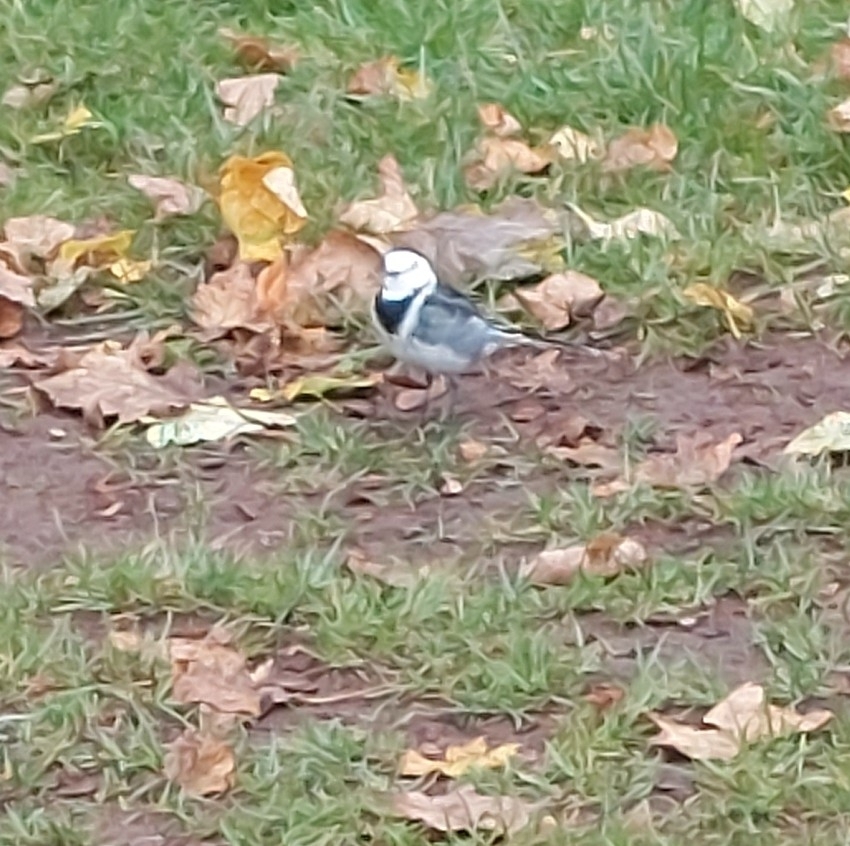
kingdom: Animalia
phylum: Chordata
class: Aves
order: Passeriformes
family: Motacillidae
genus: Motacilla
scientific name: Motacilla alba
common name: White wagtail
